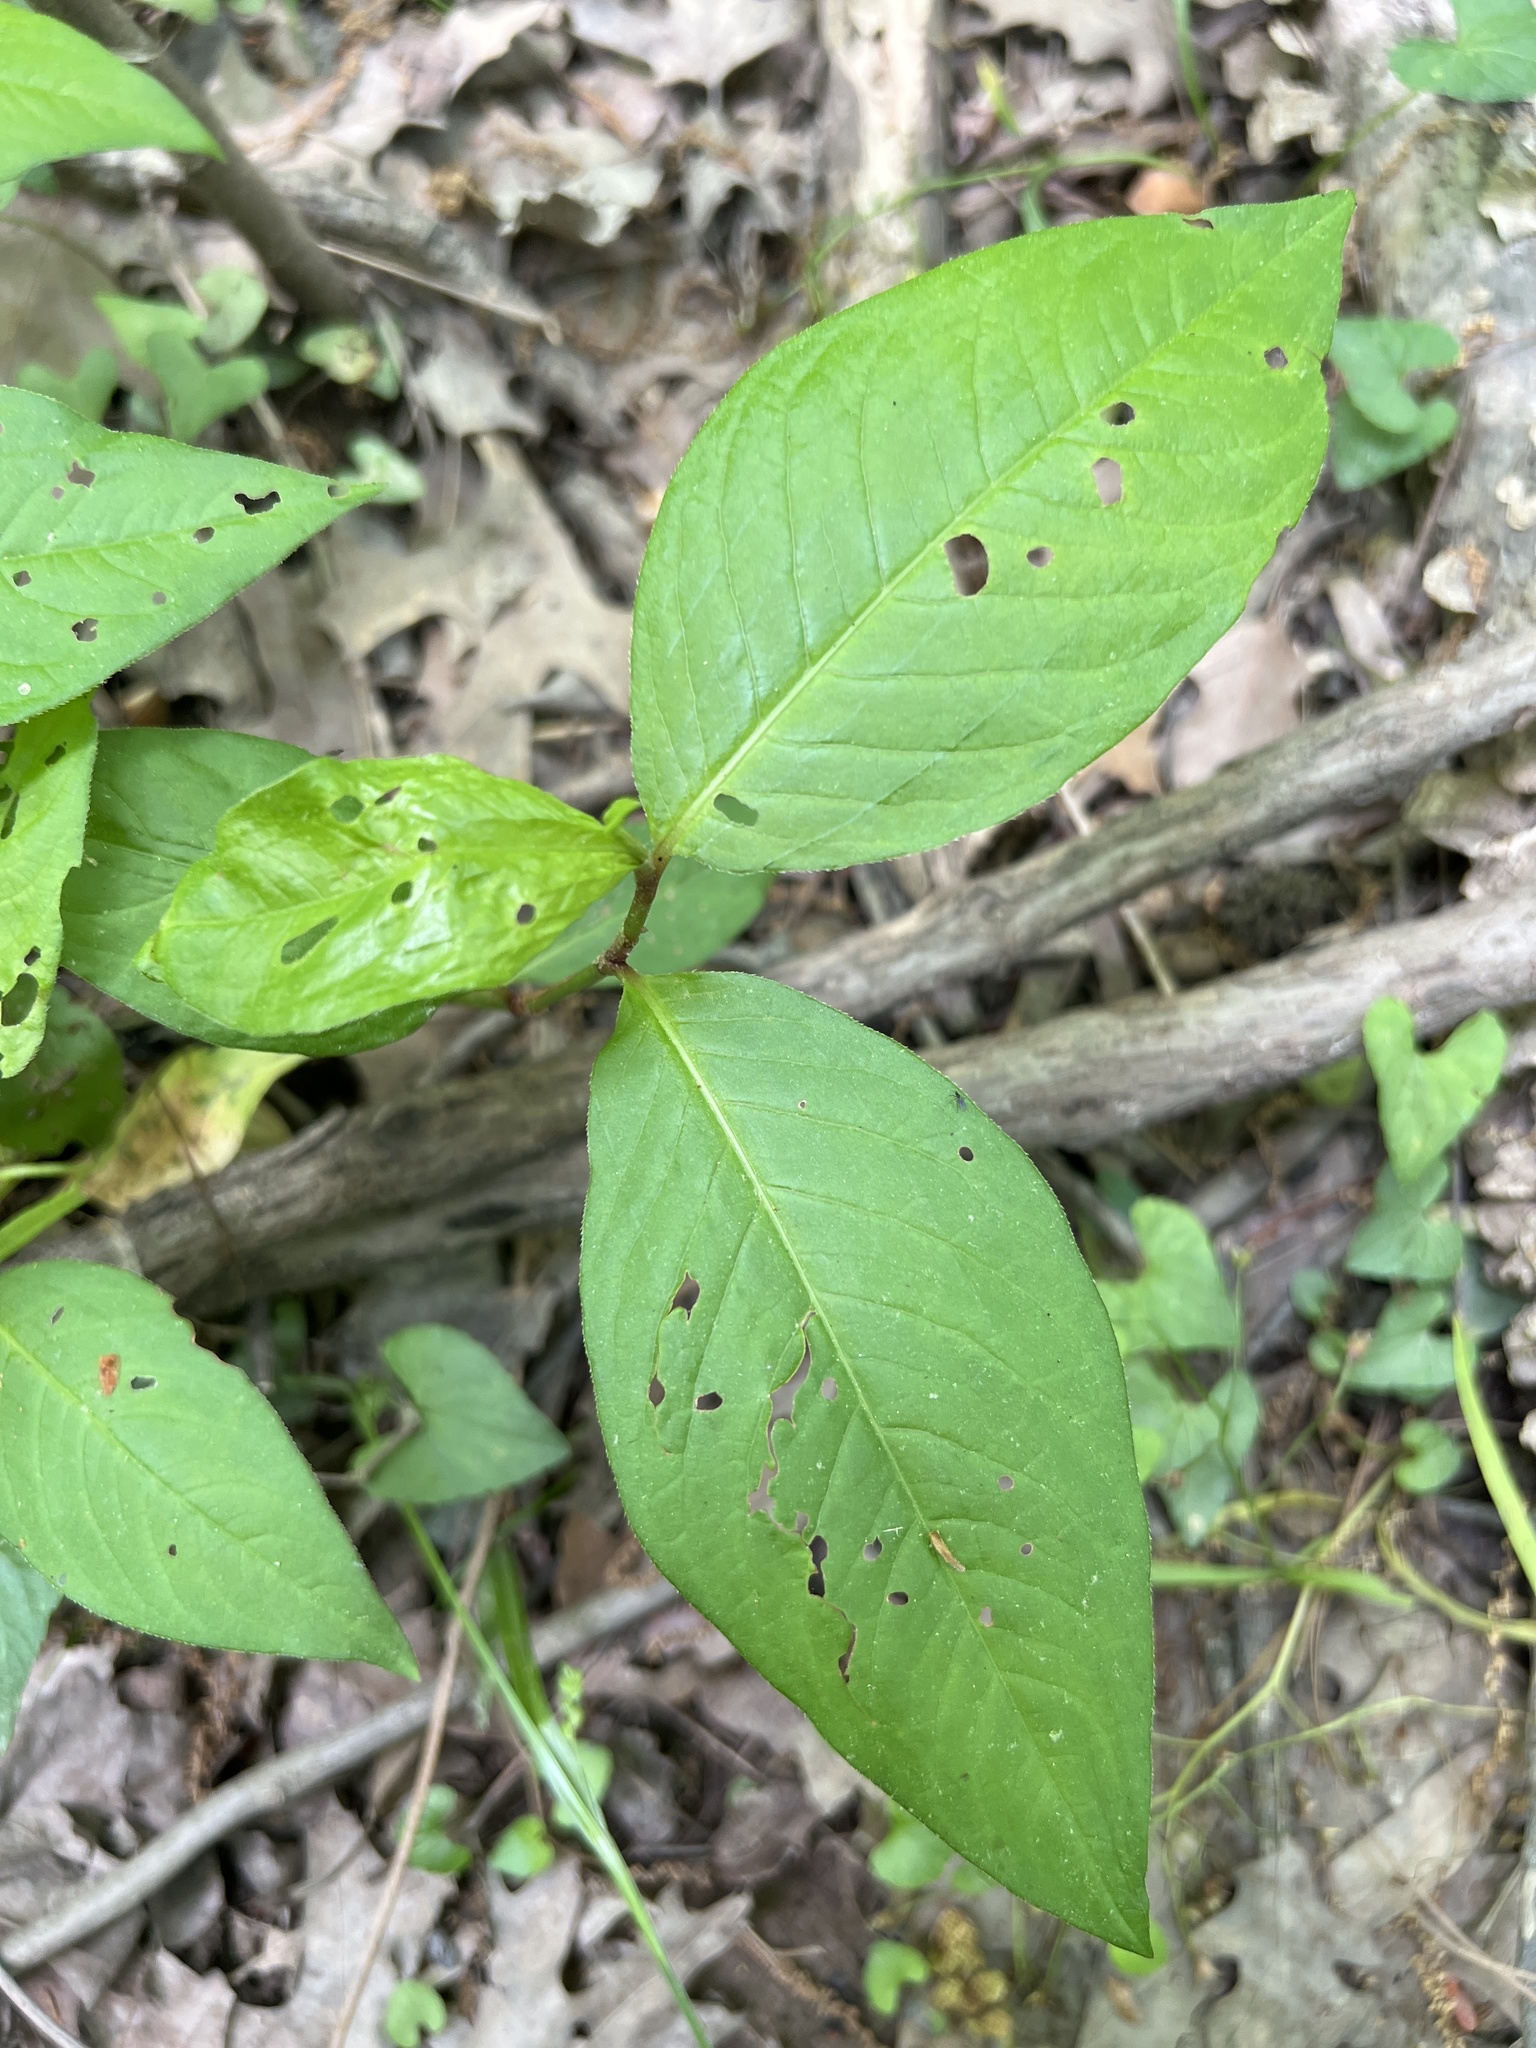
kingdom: Plantae
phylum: Tracheophyta
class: Magnoliopsida
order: Caryophyllales
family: Polygonaceae
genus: Persicaria
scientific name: Persicaria virginiana
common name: Jumpseed
